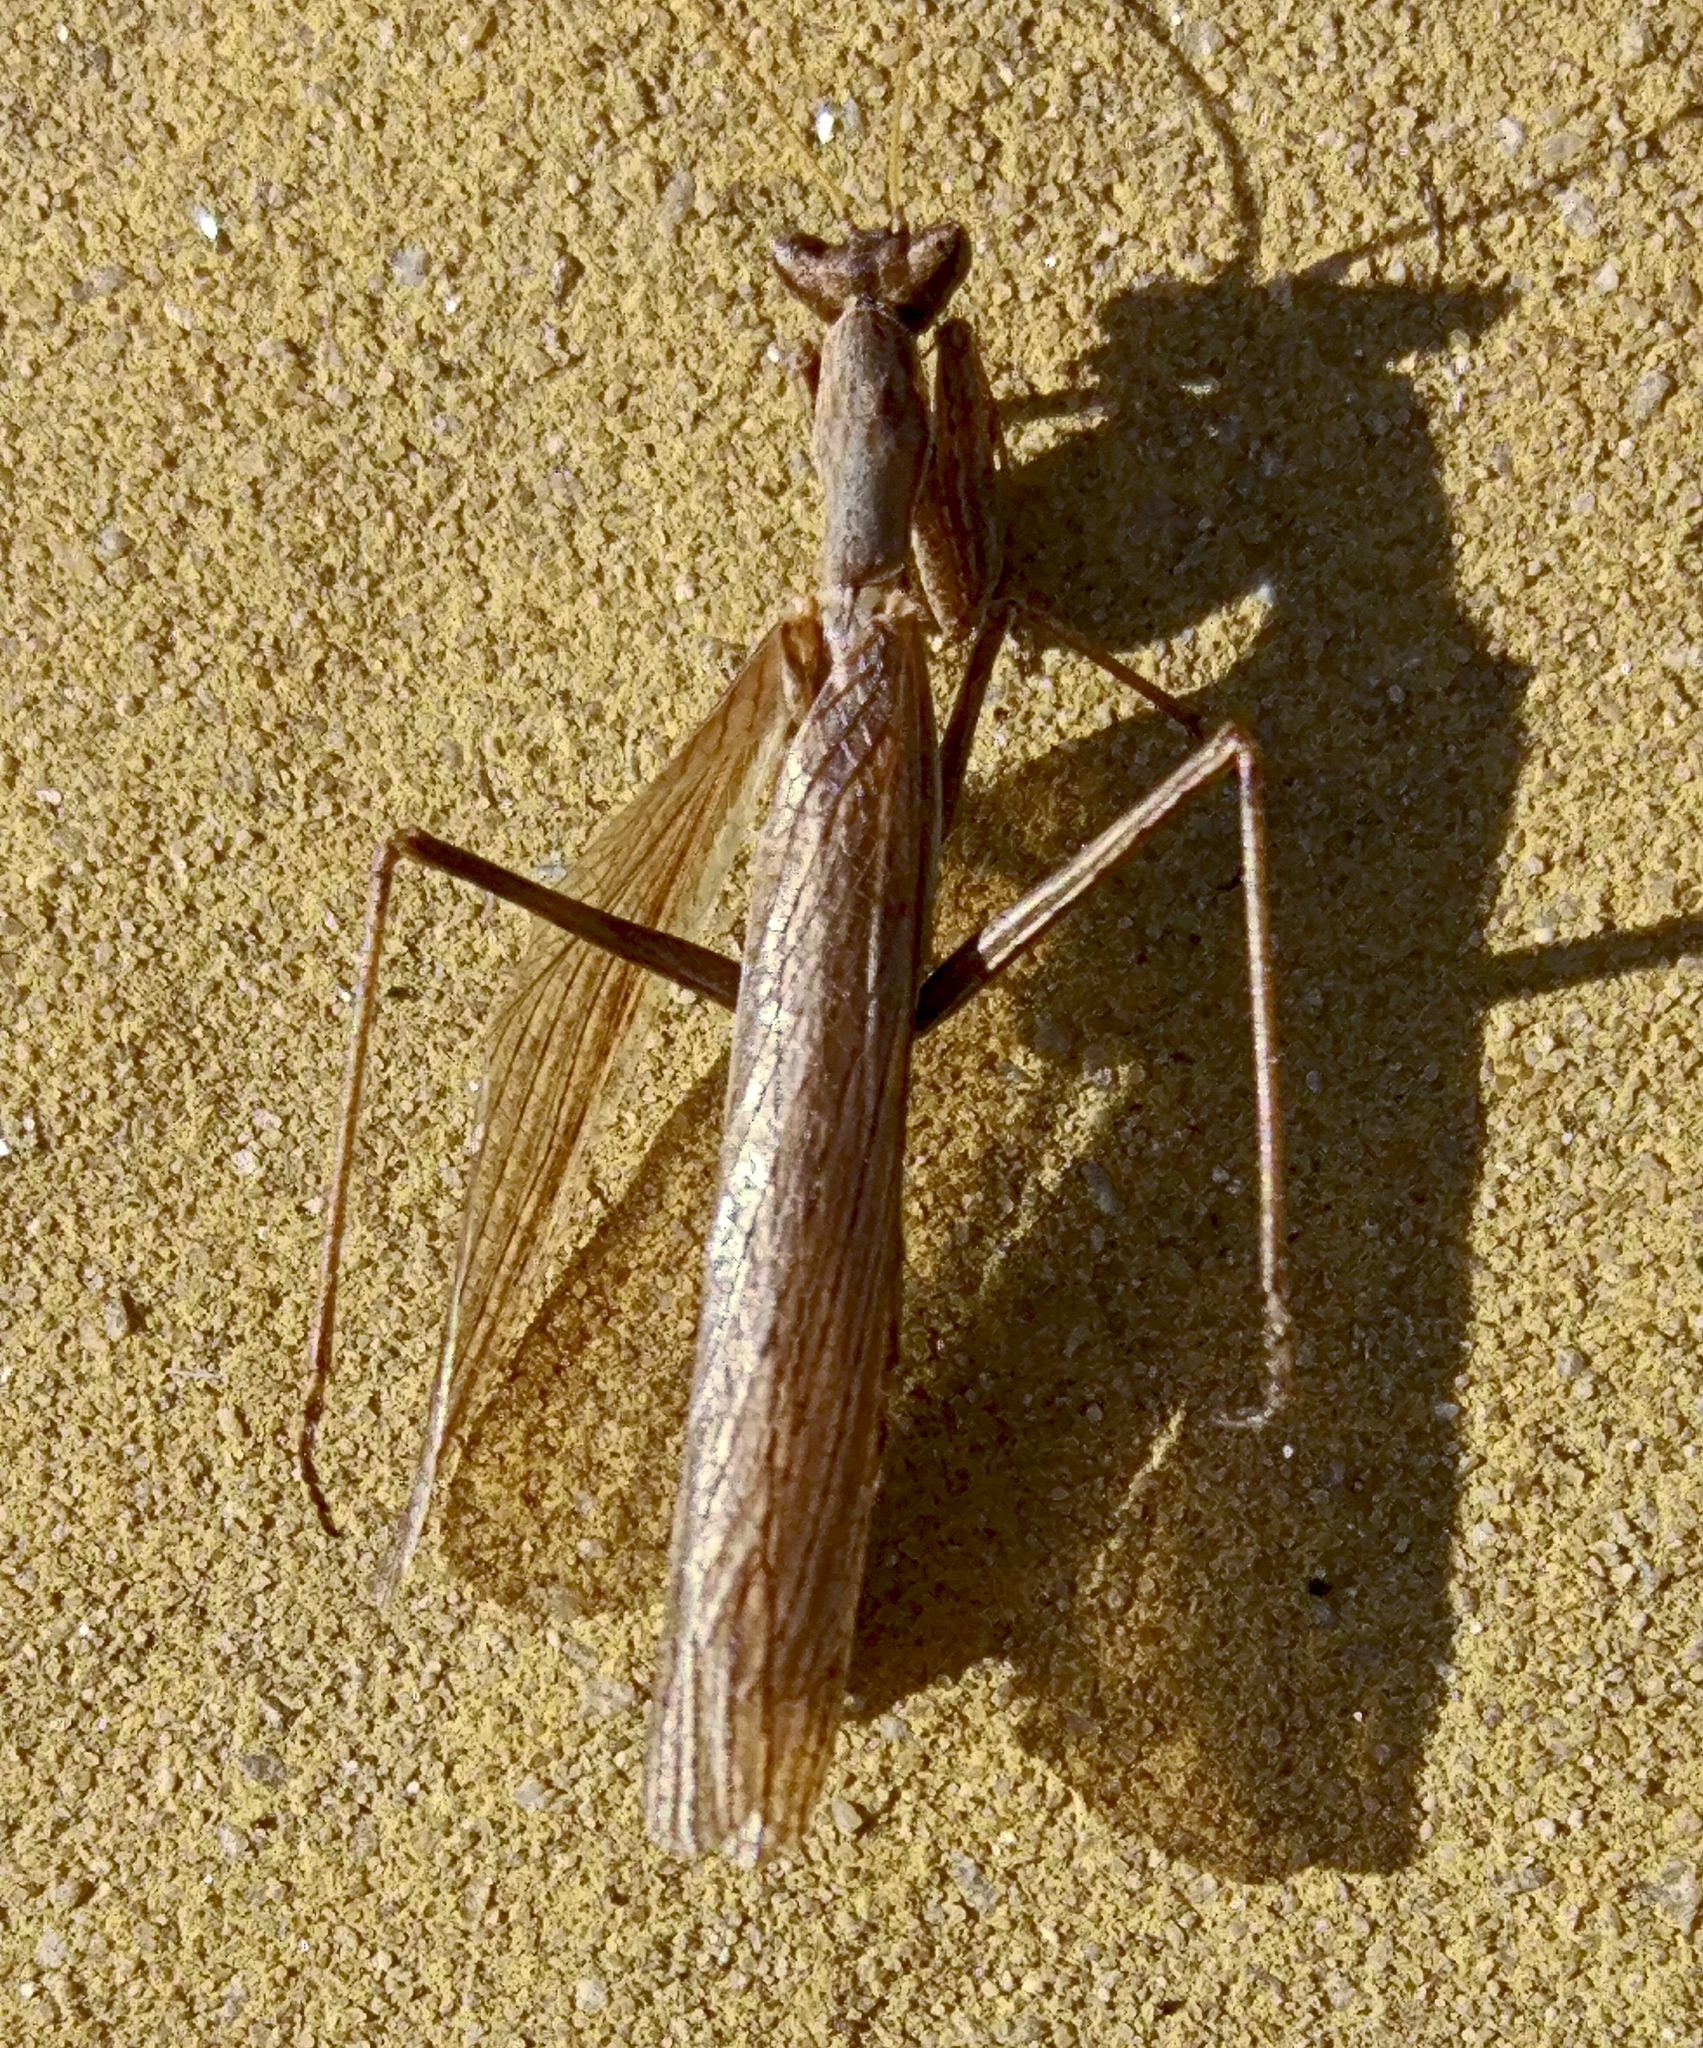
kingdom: Animalia
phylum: Arthropoda
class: Insecta
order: Mantodea
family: Amelidae
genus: Ameles
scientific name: Ameles heldreichi
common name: Heldreich's dwarf mantis
